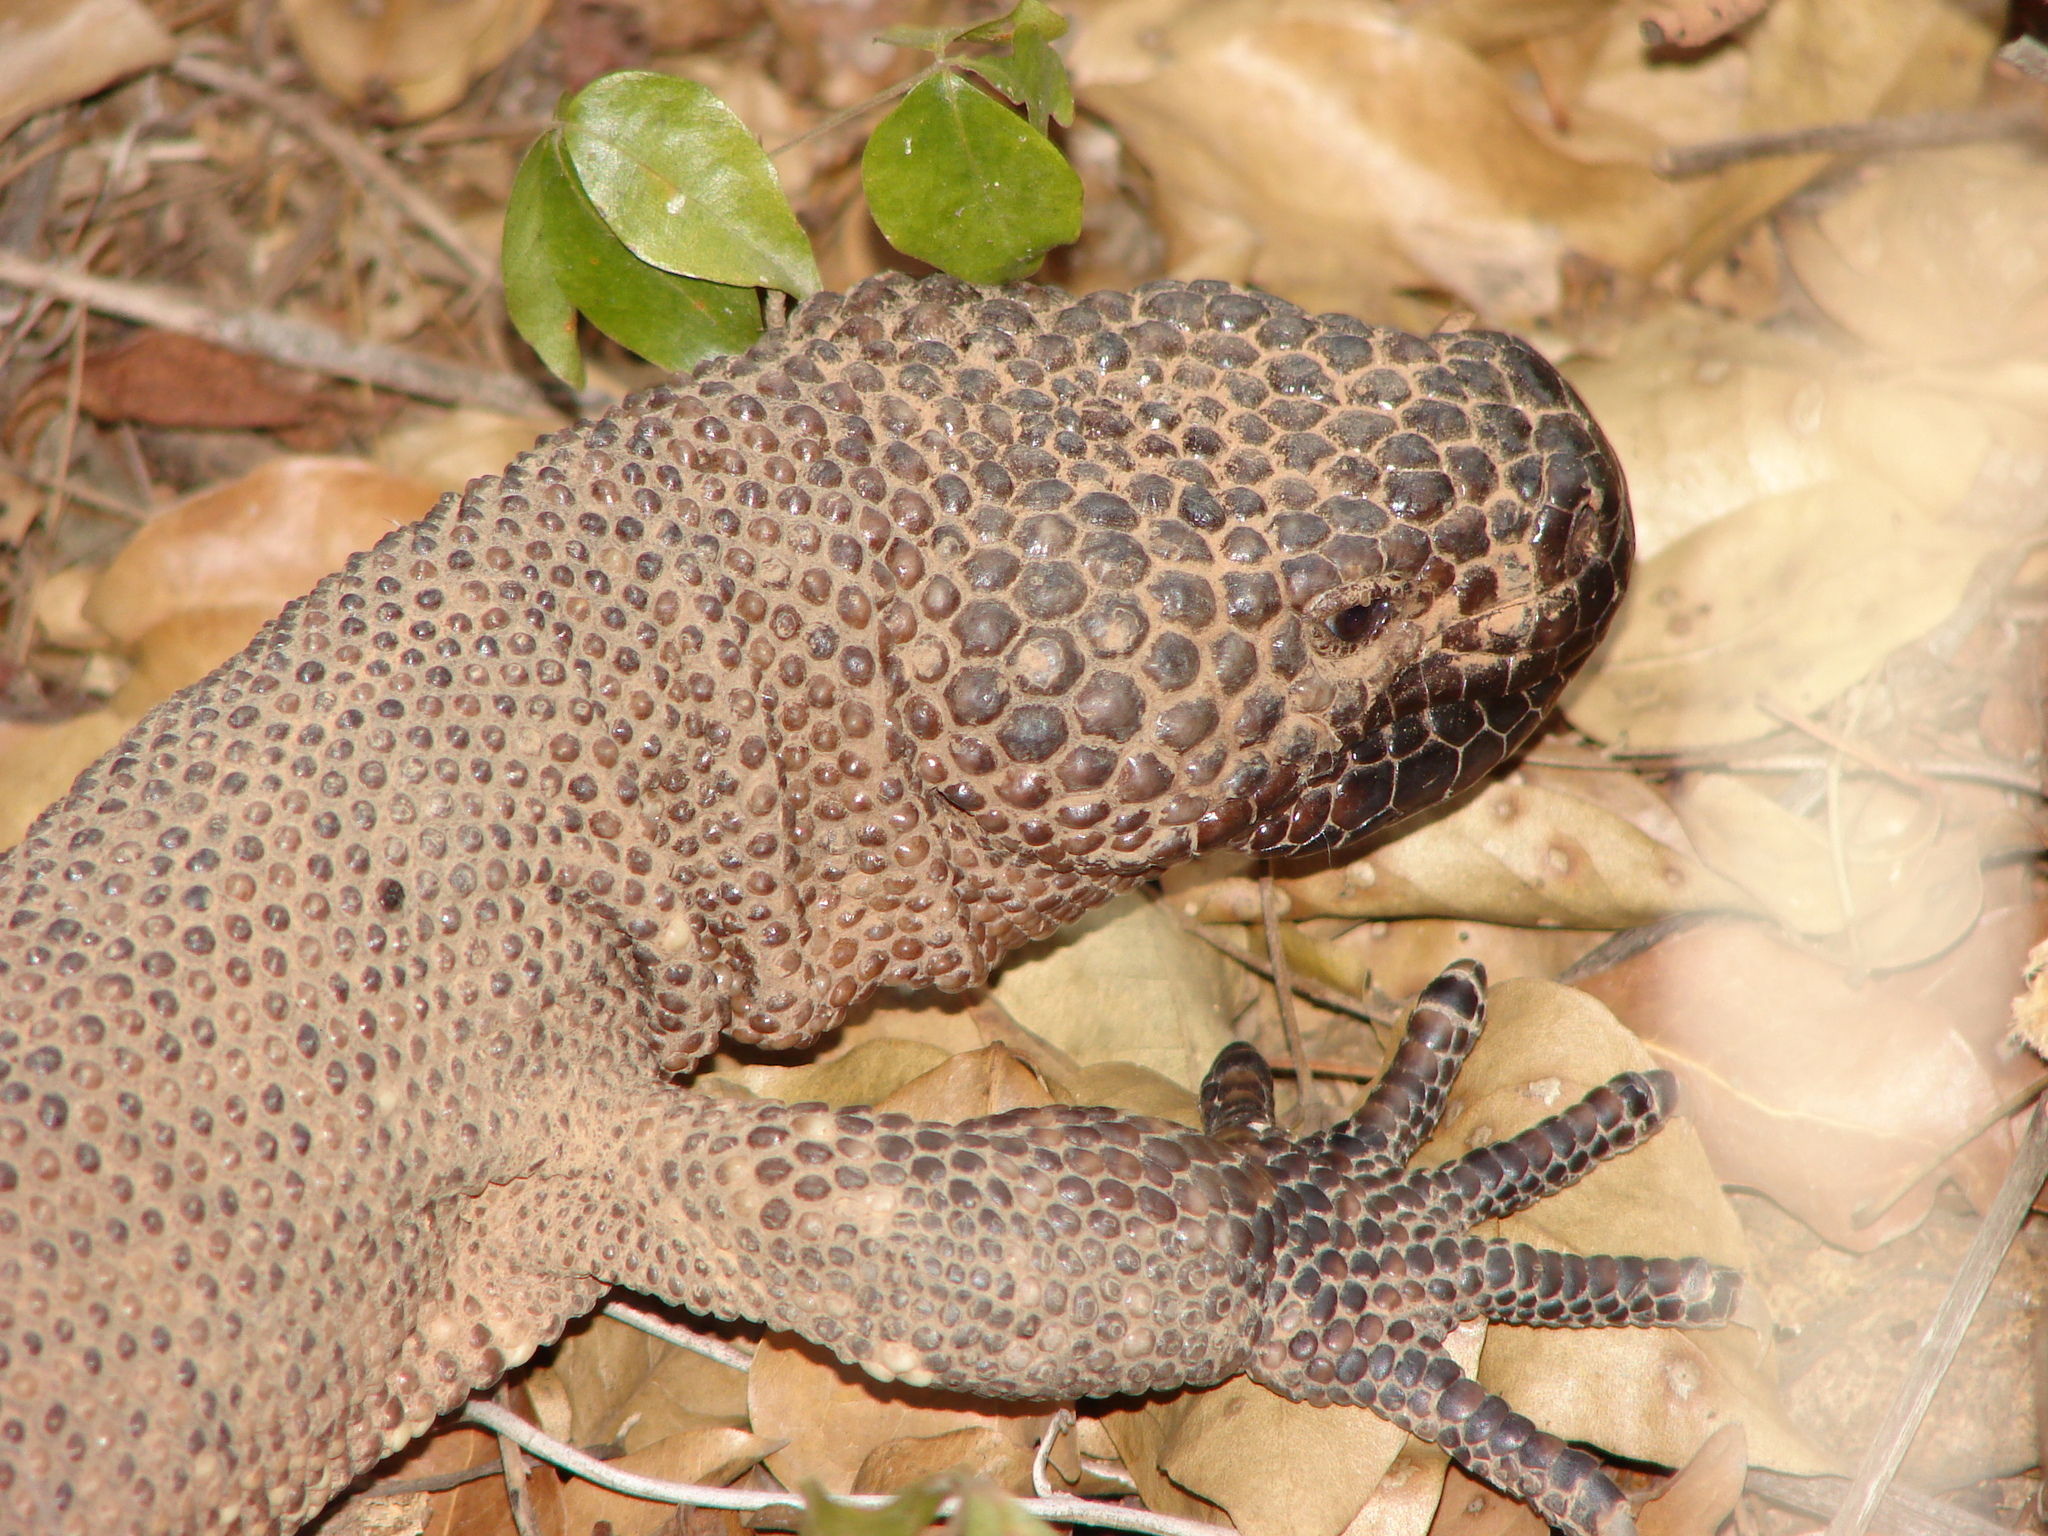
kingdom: Animalia
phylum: Chordata
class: Squamata
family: Helodermatidae
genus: Heloderma
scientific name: Heloderma horridum
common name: Mexican beaded lizard
